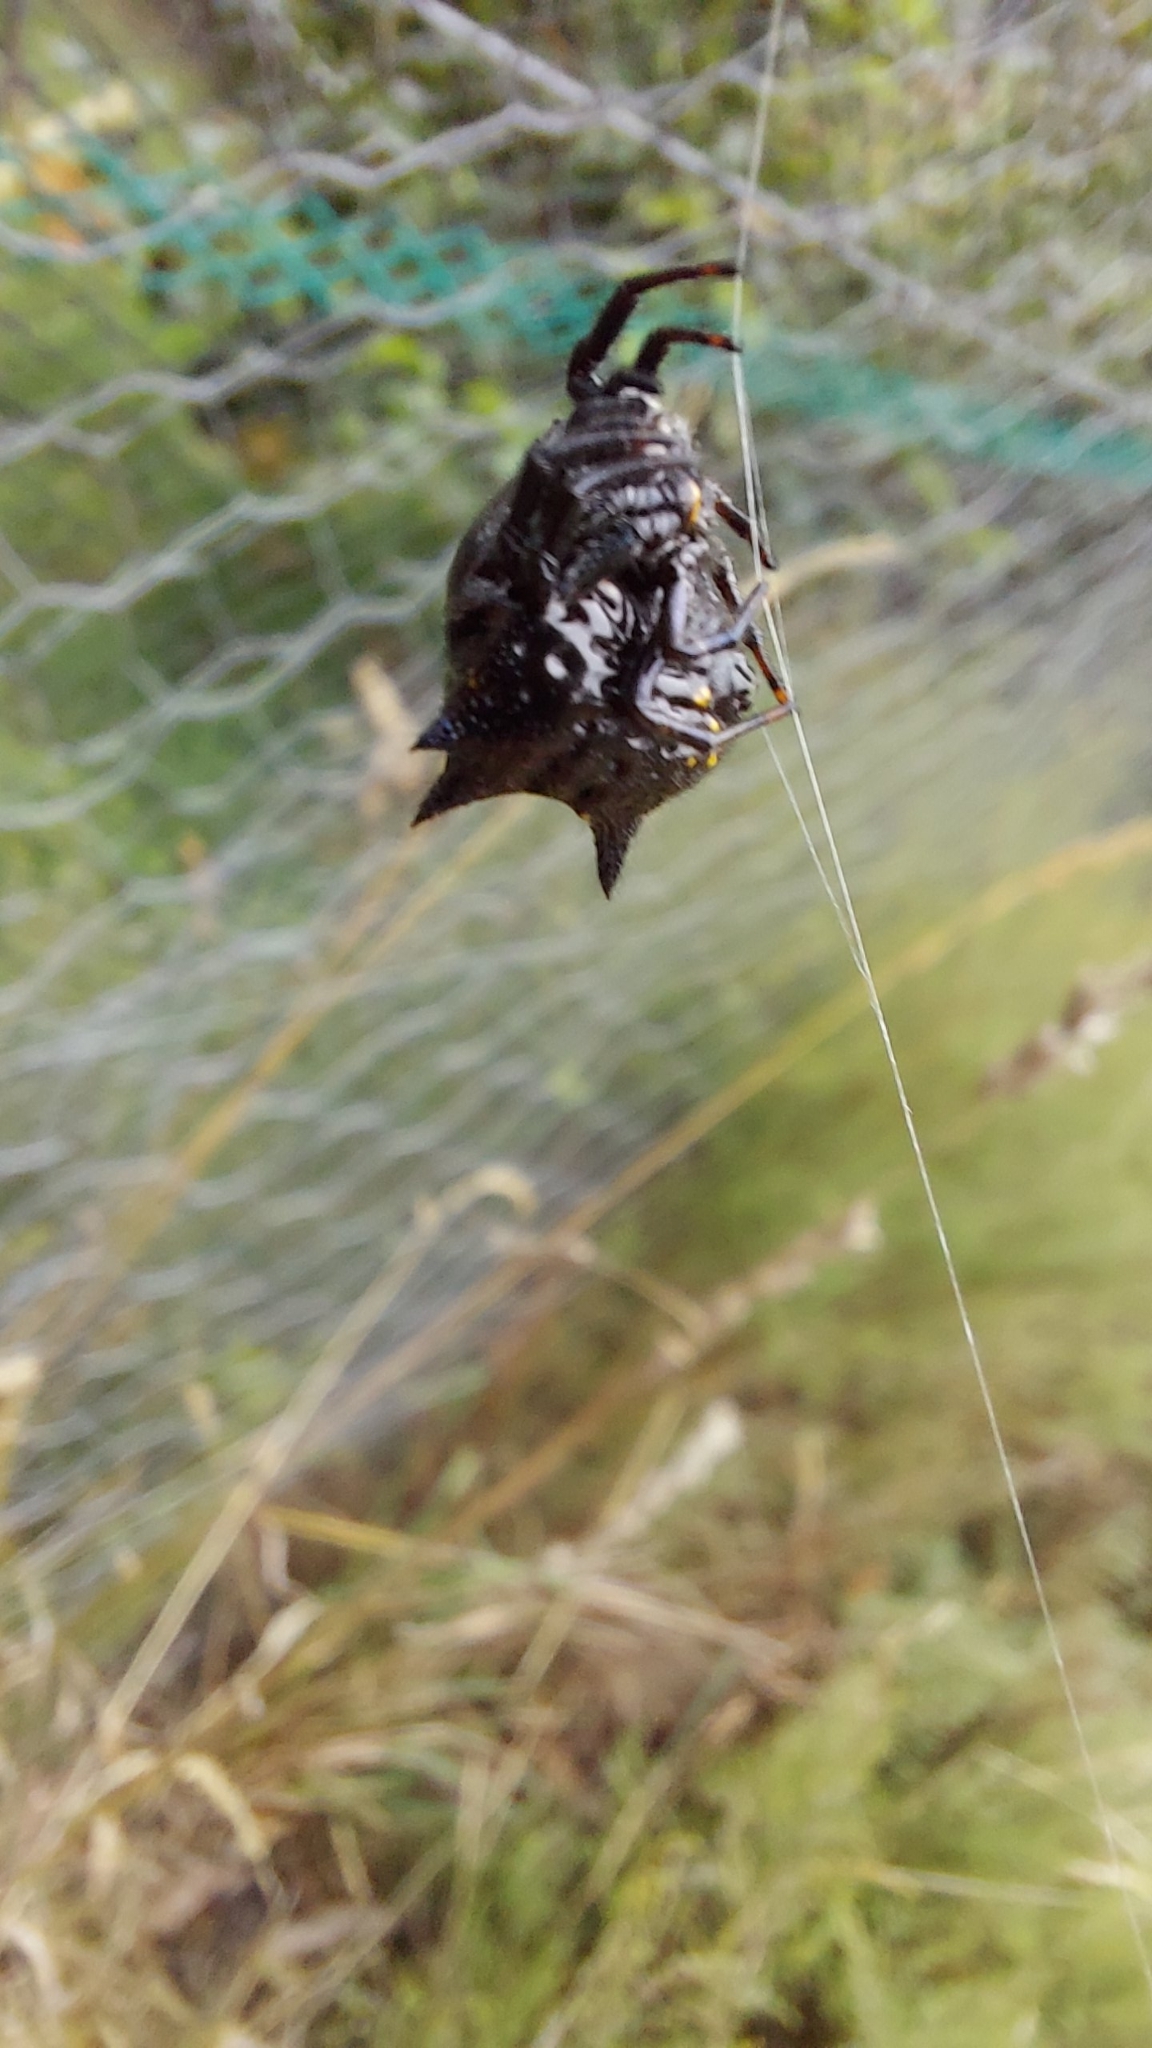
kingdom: Animalia
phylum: Arthropoda
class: Arachnida
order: Araneae
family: Araneidae
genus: Austracantha
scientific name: Austracantha minax
